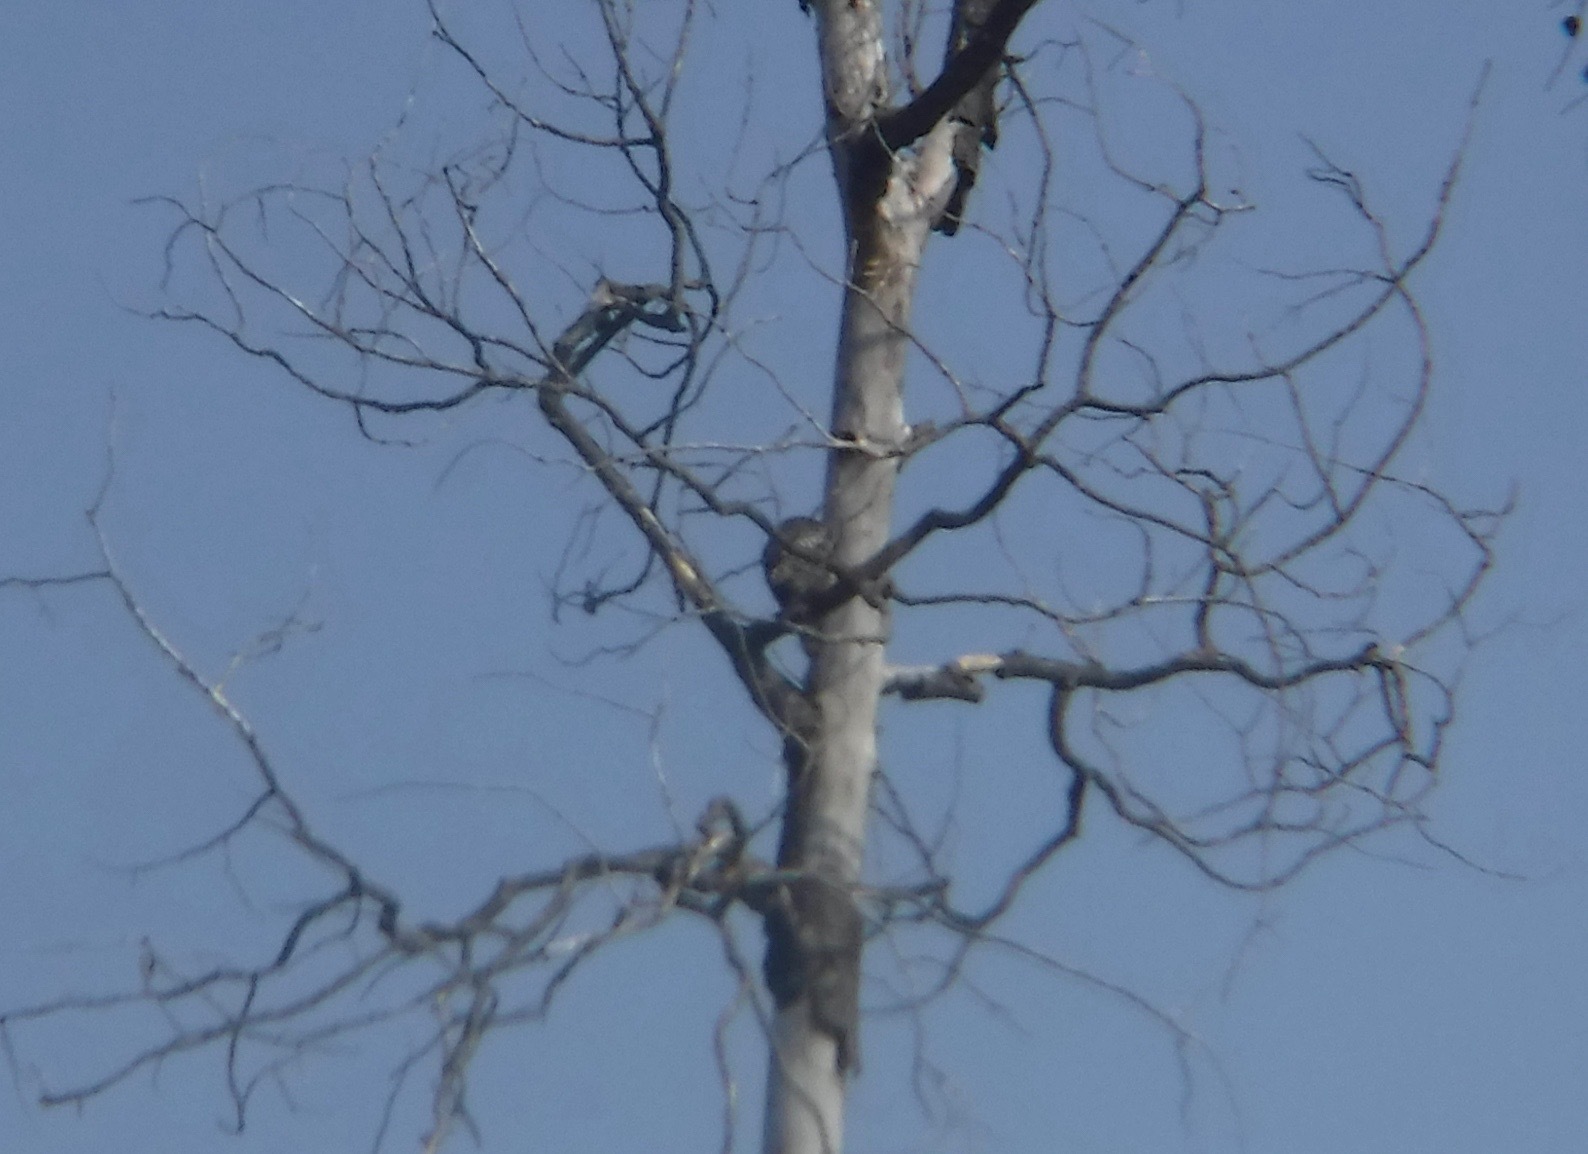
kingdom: Animalia
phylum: Chordata
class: Aves
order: Strigiformes
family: Strigidae
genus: Surnia
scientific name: Surnia ulula
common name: Northern hawk-owl
